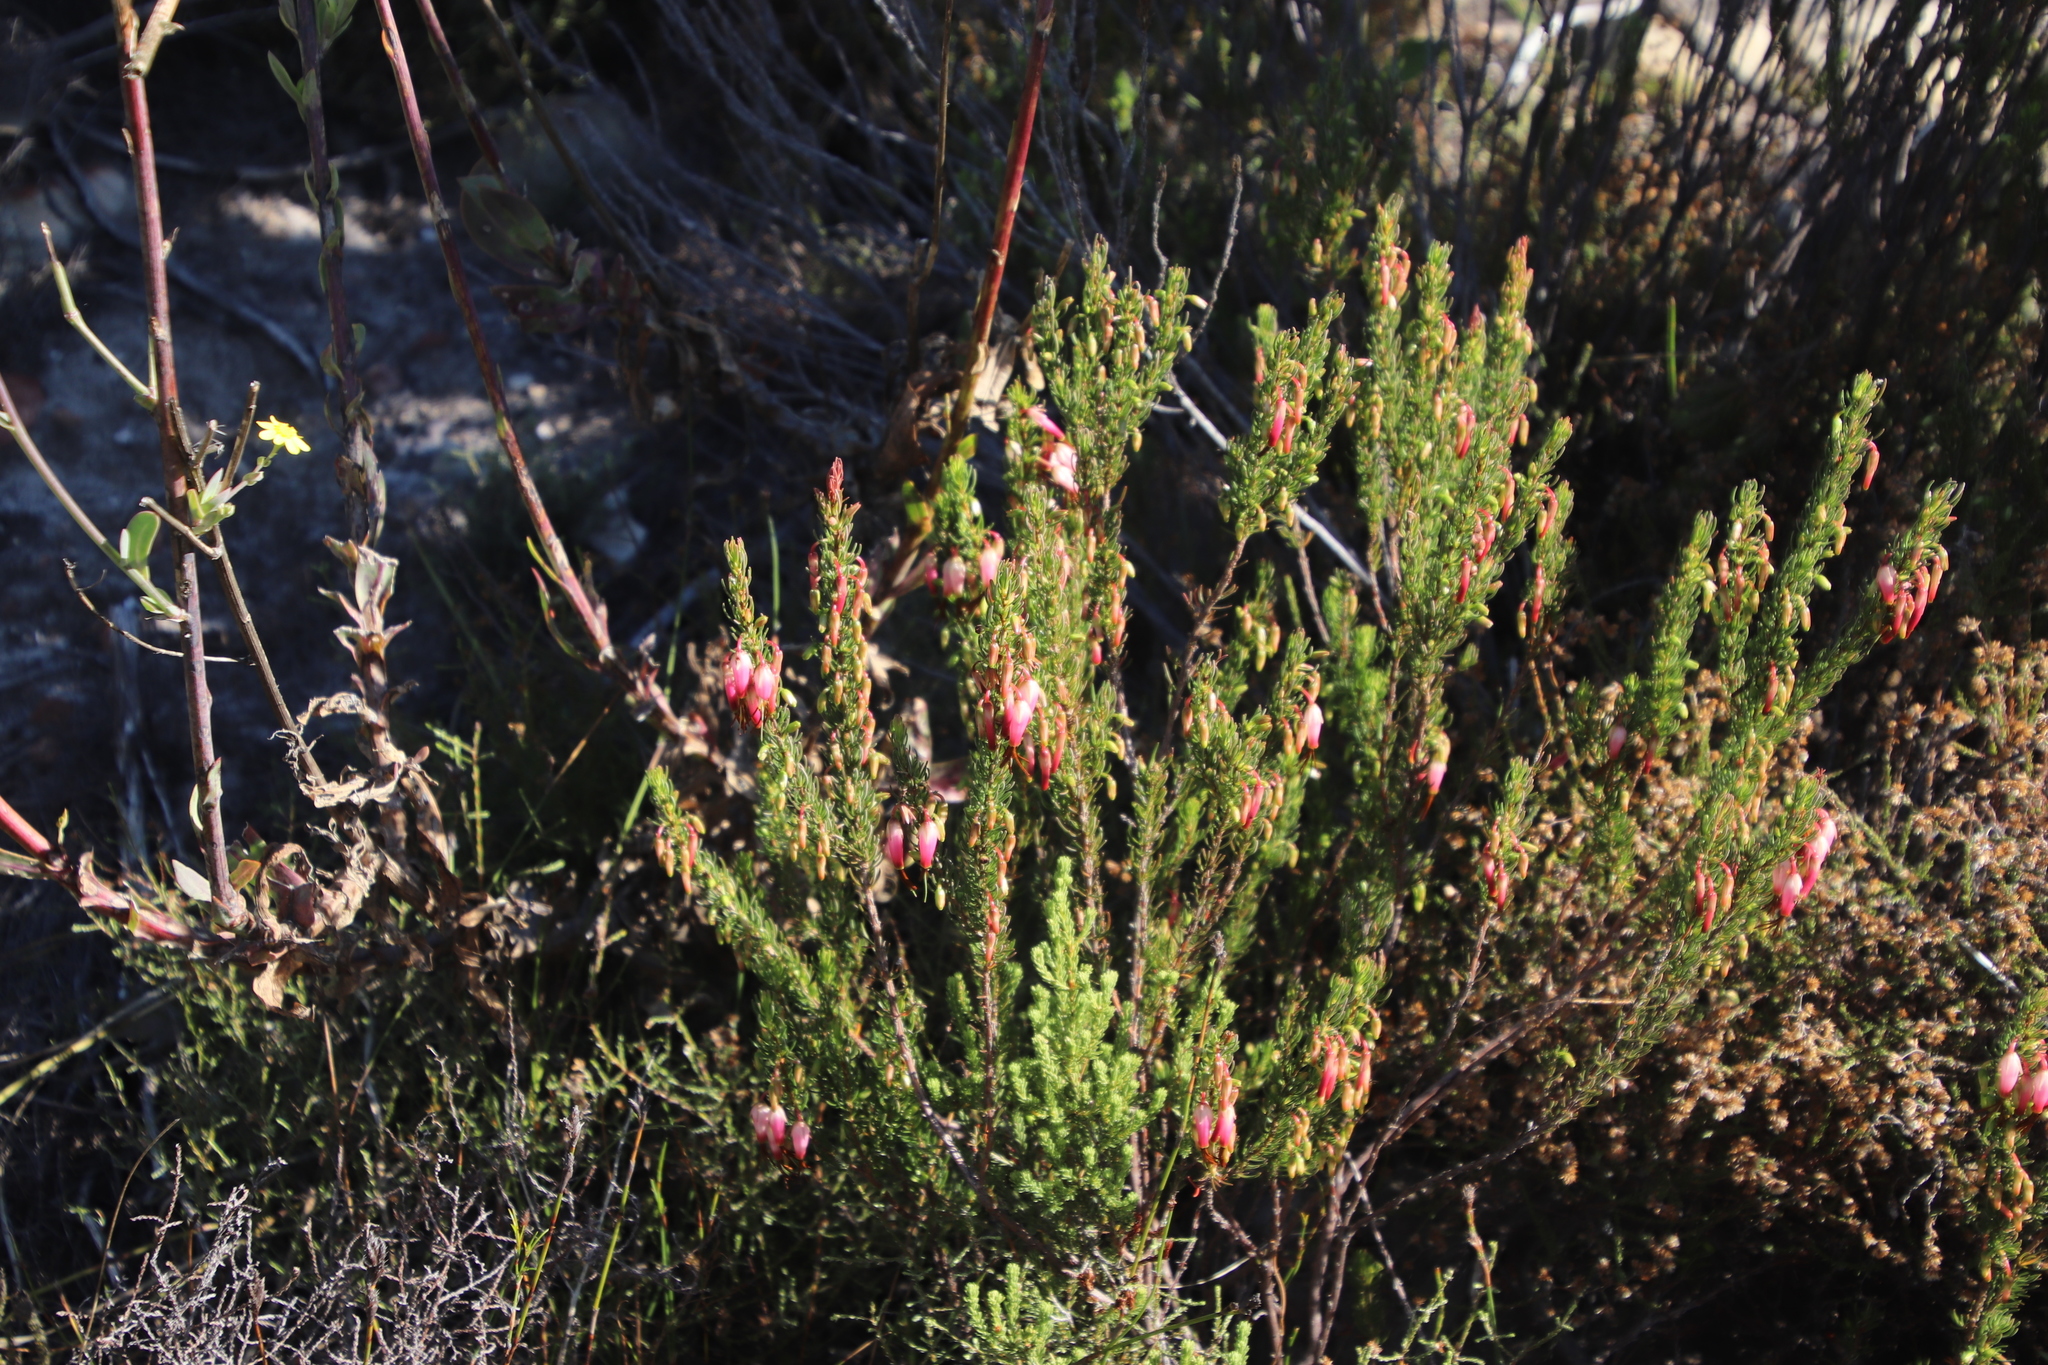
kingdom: Plantae
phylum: Tracheophyta
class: Magnoliopsida
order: Ericales
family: Ericaceae
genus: Erica
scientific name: Erica plukenetii
